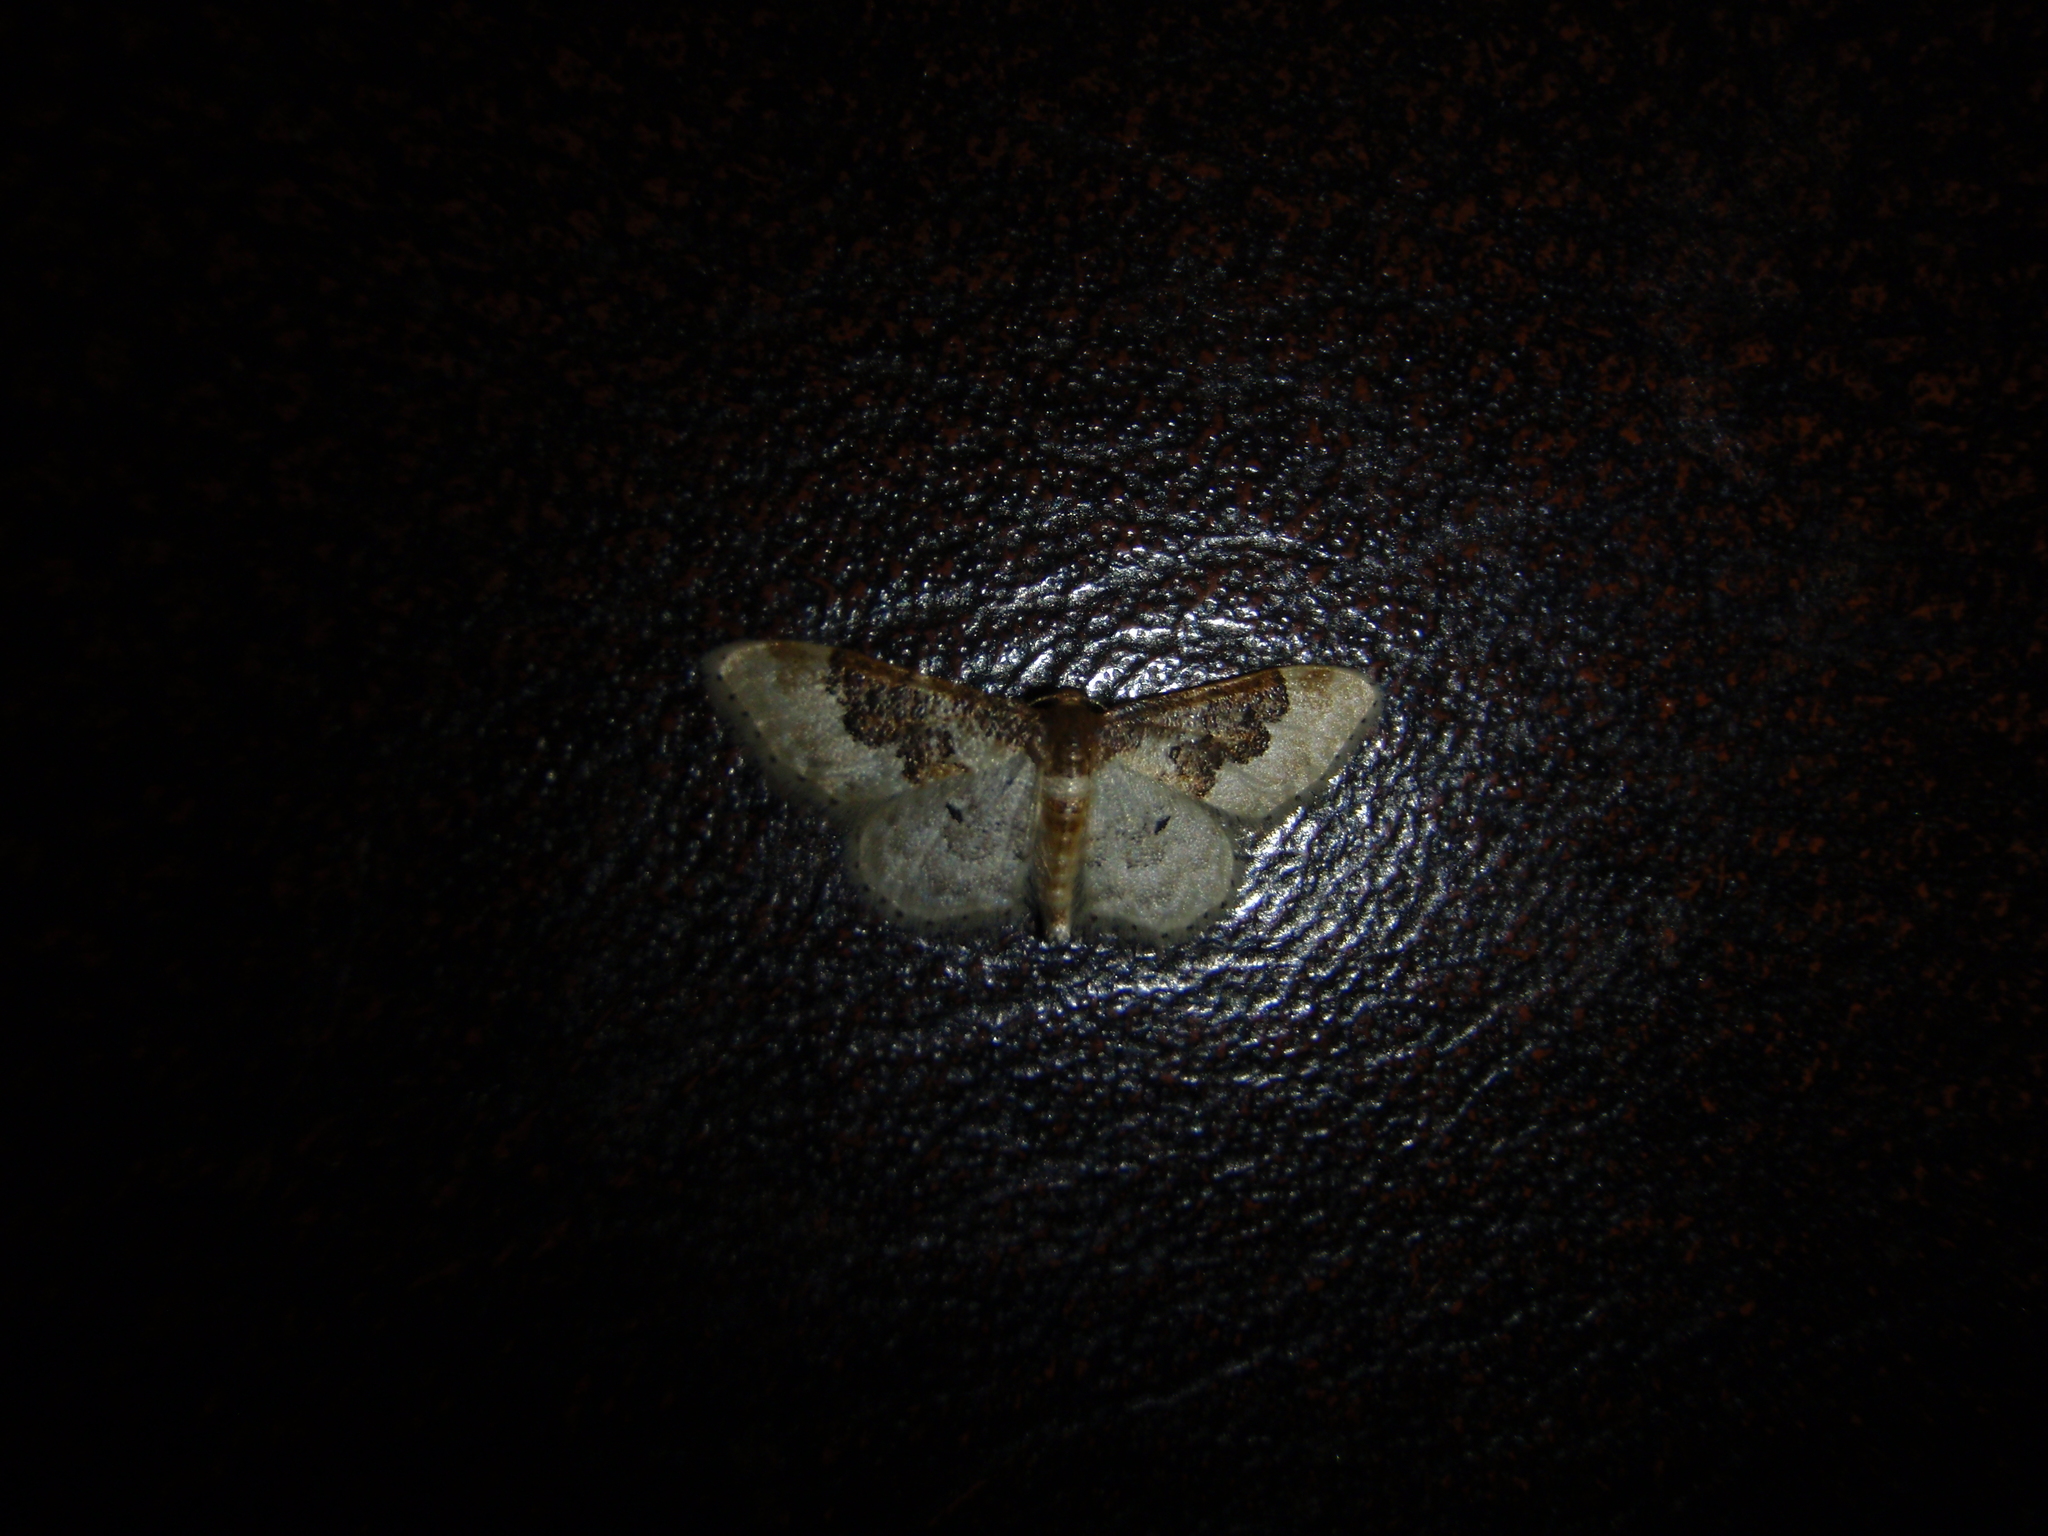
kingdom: Animalia
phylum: Arthropoda
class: Insecta
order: Lepidoptera
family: Geometridae
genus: Idaea
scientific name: Idaea rusticata
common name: Least carpet
